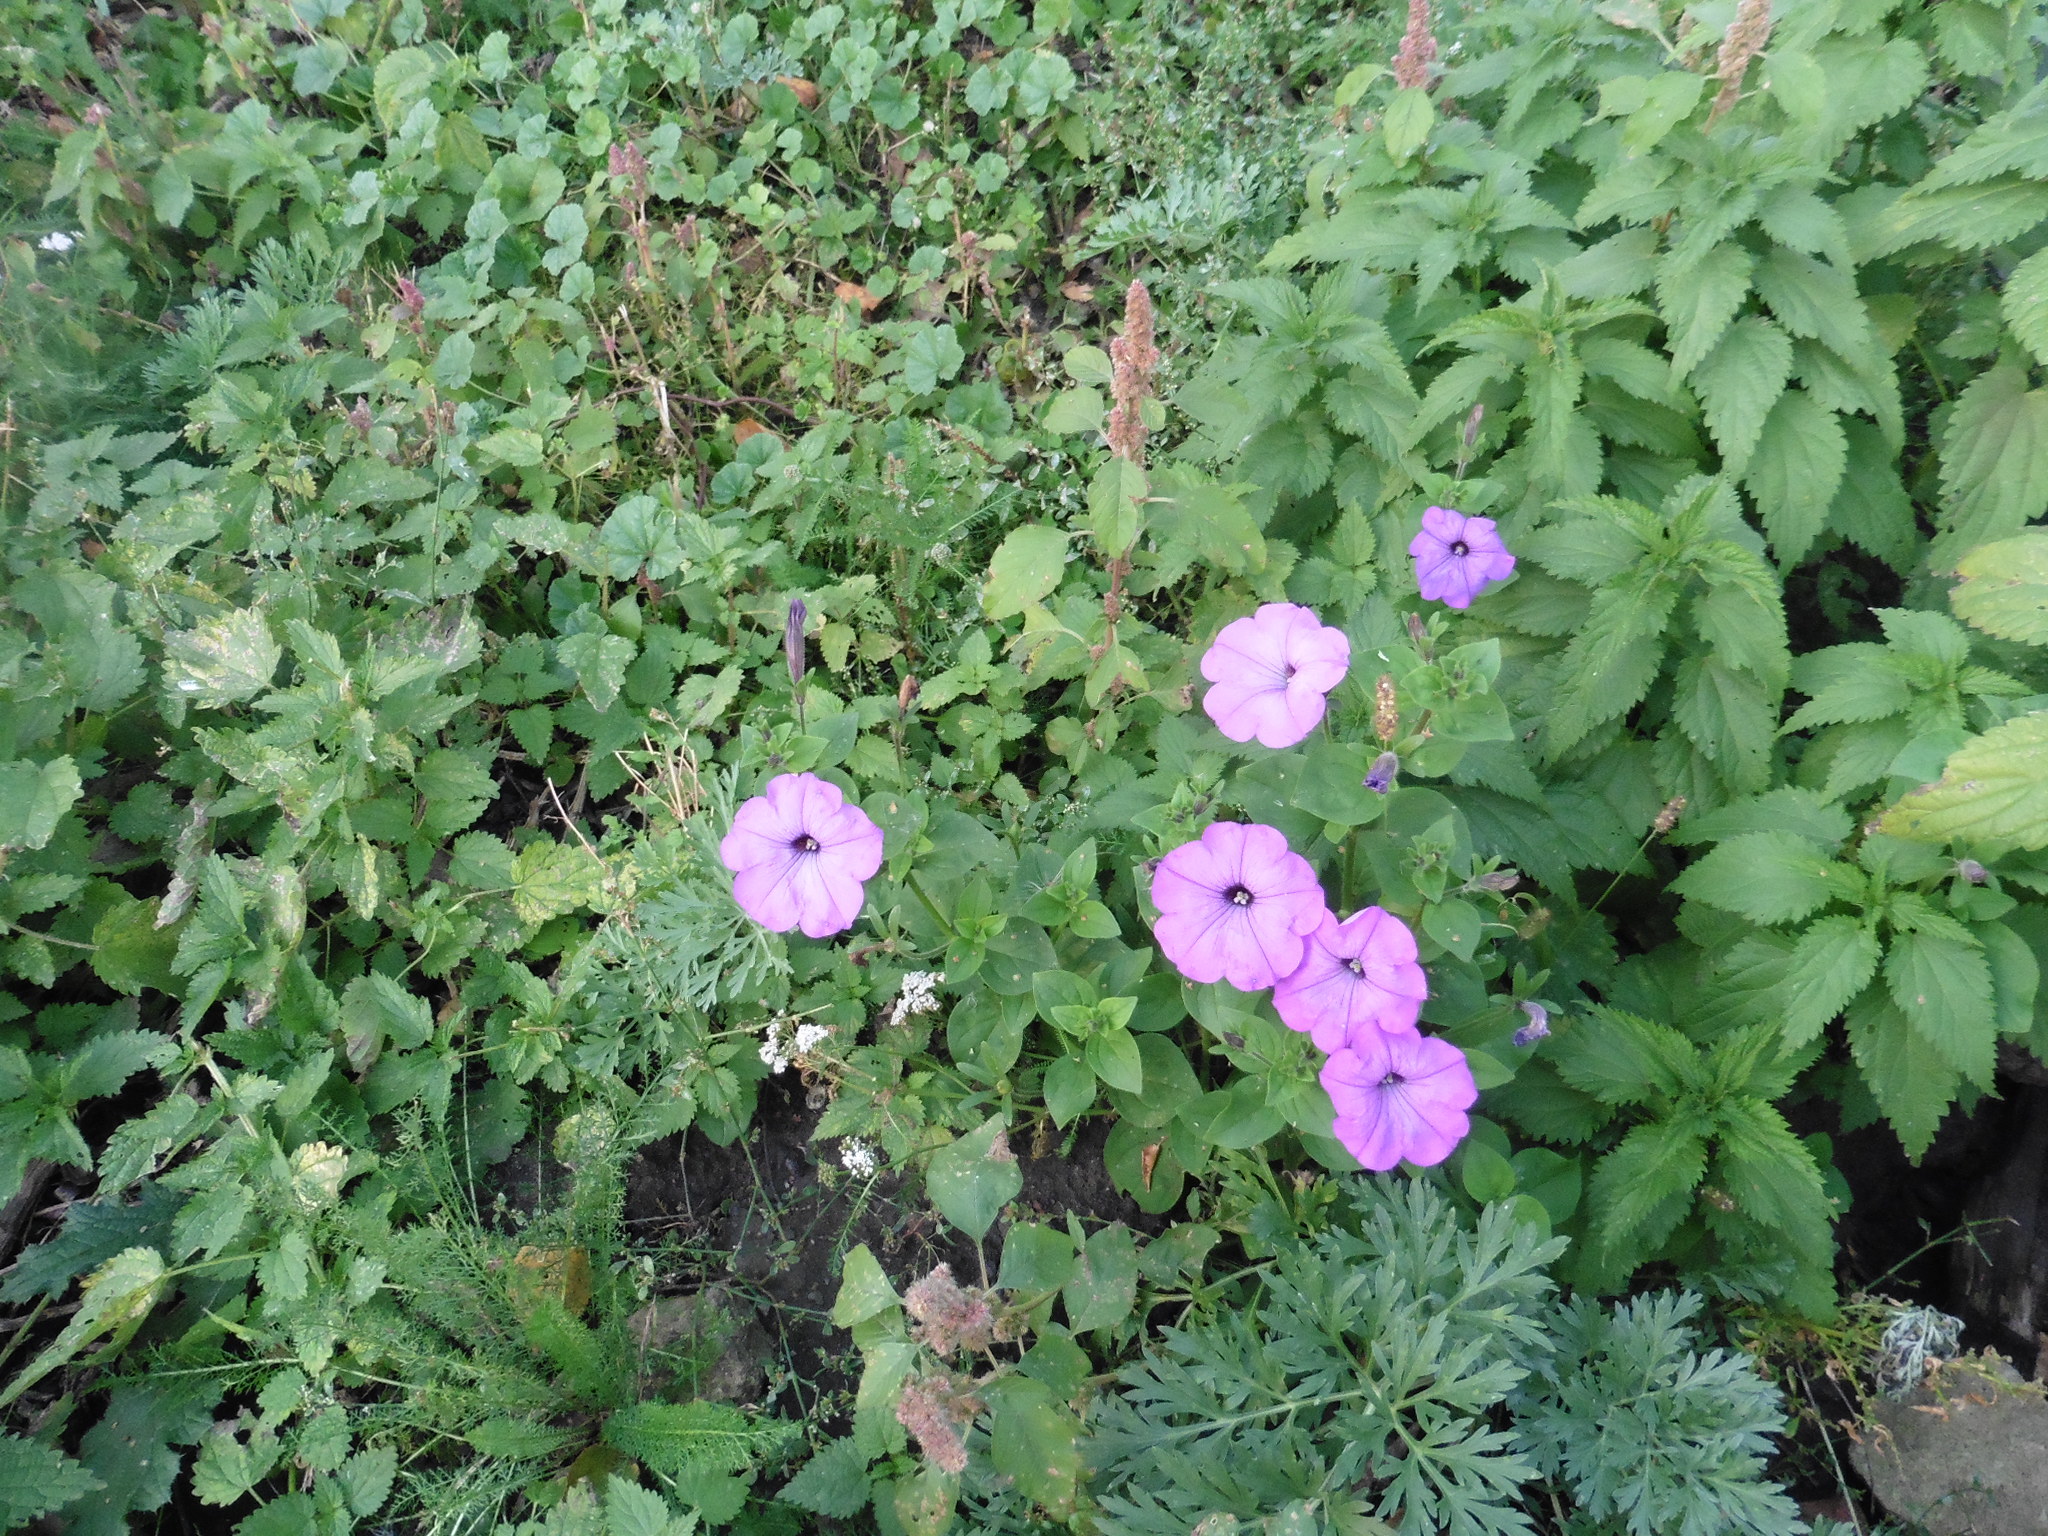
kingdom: Plantae
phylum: Tracheophyta
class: Magnoliopsida
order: Solanales
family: Solanaceae
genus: Petunia
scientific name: Petunia atkinsiana
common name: Petunia
